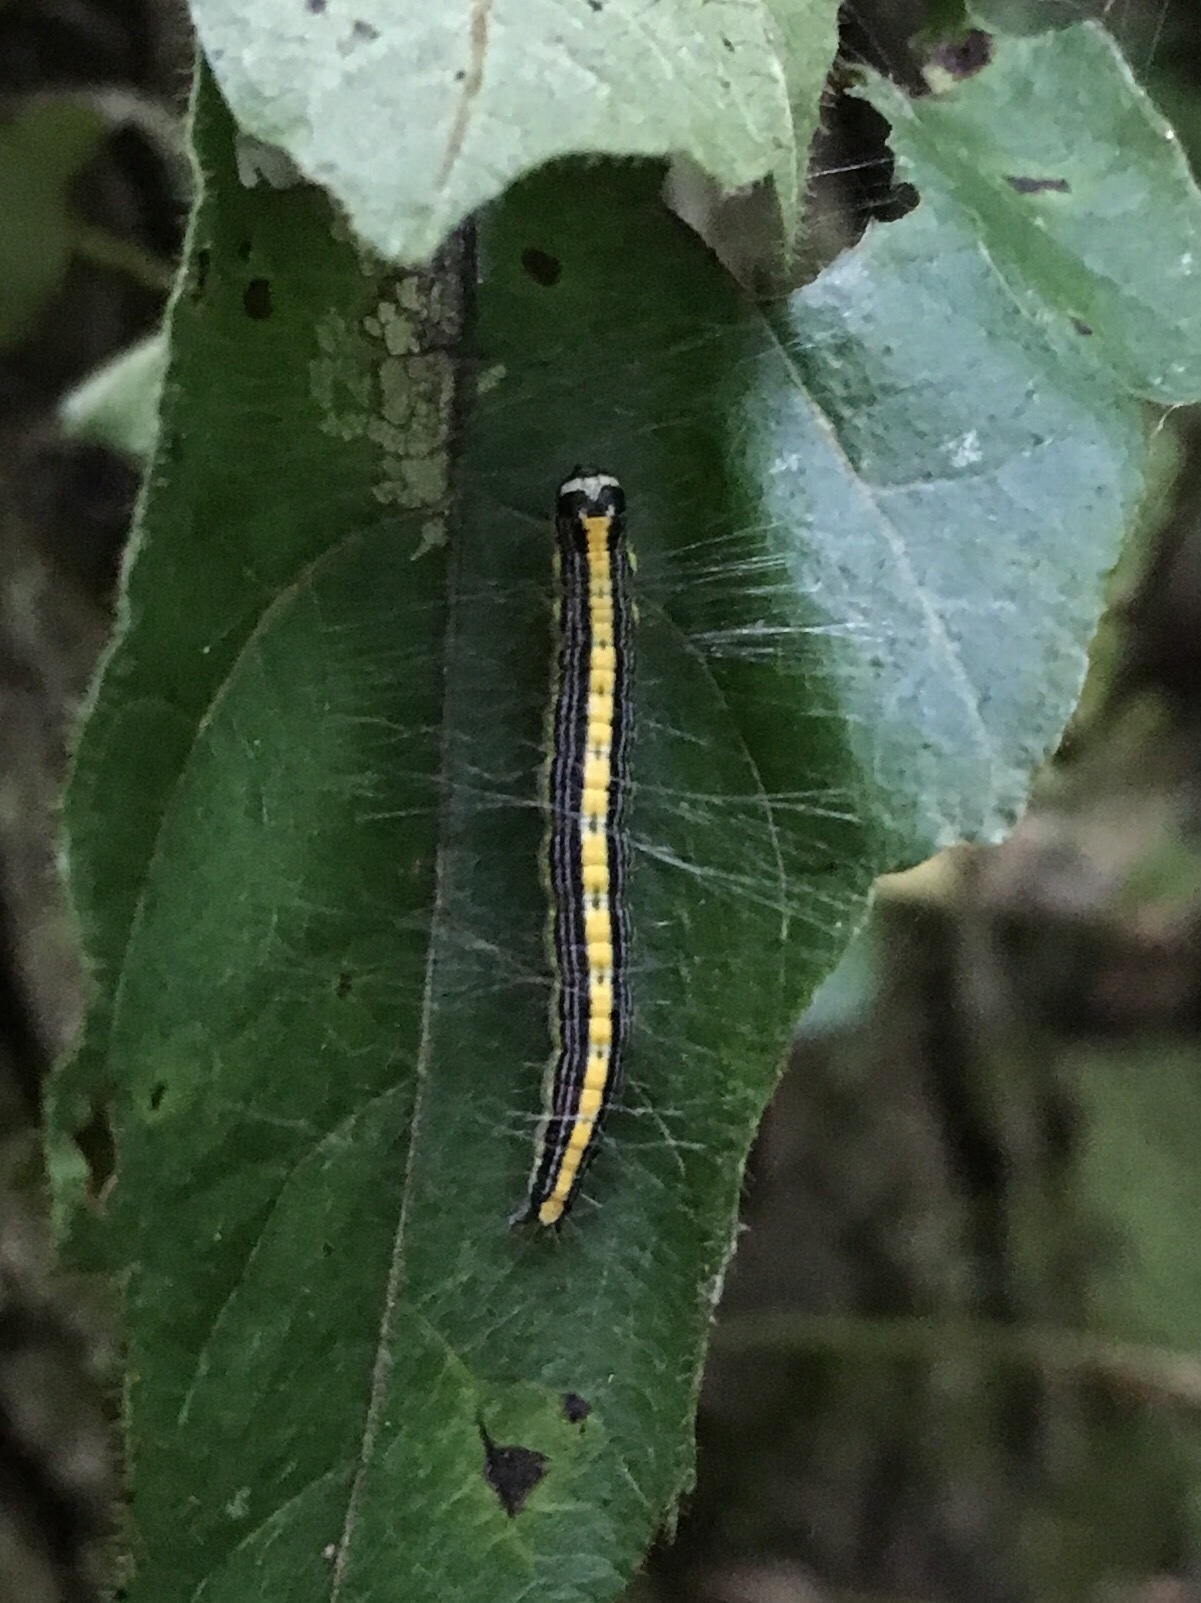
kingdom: Animalia
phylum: Arthropoda
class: Insecta
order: Lepidoptera
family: Pyralidae
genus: Epipaschia
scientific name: Epipaschia superatalis
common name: Dimorphic macalla moth
